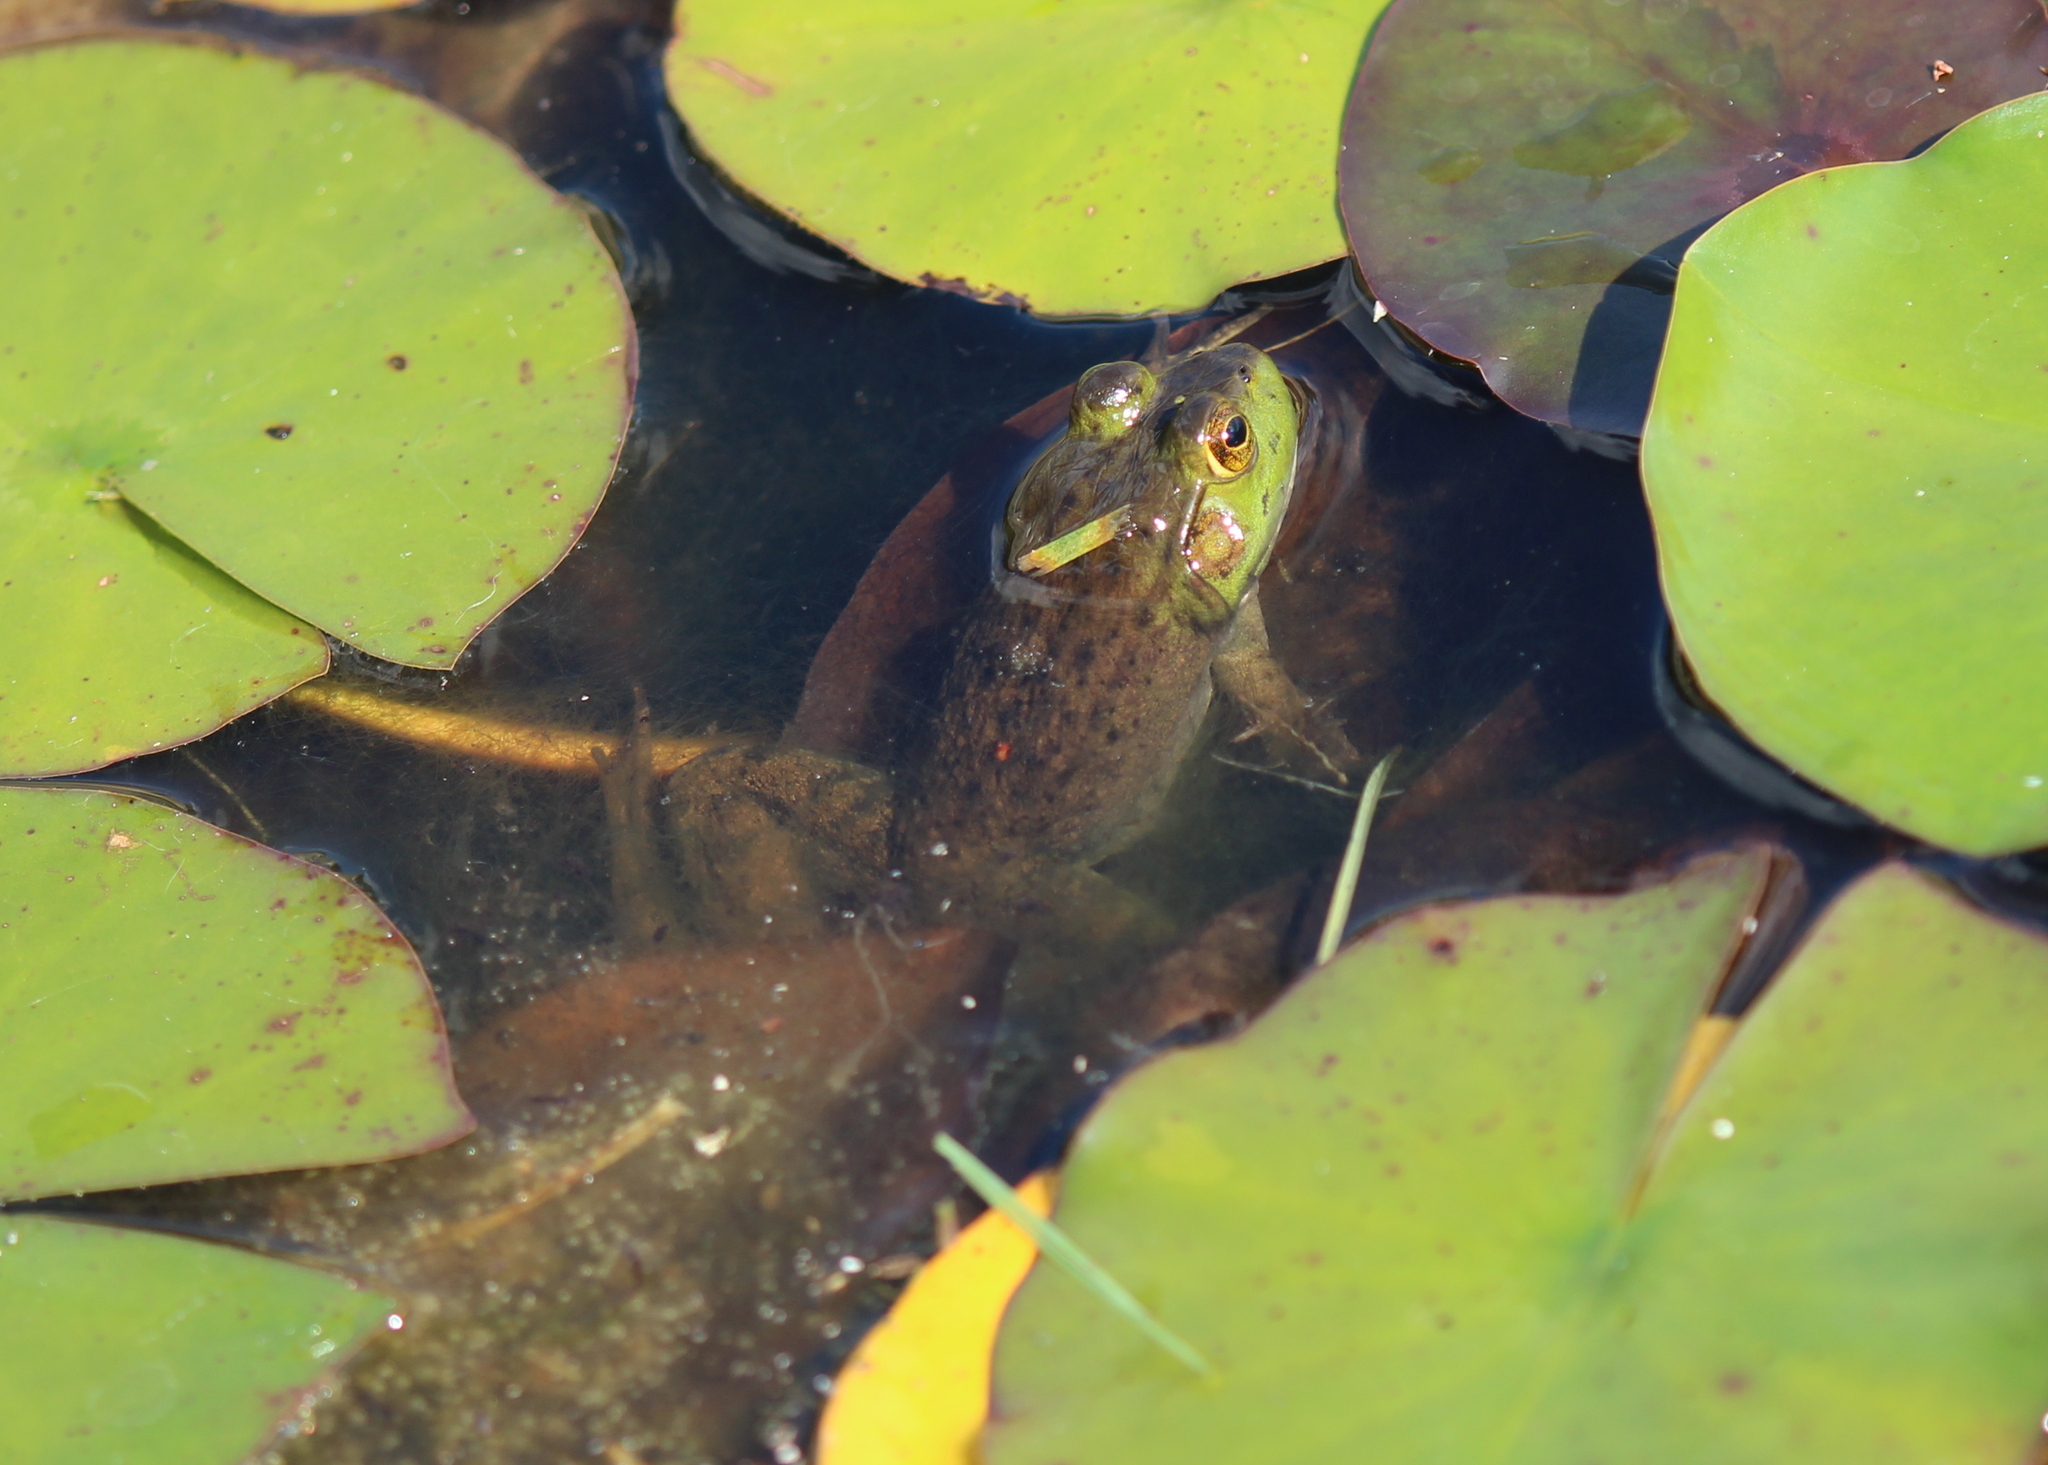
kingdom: Animalia
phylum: Chordata
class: Amphibia
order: Anura
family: Ranidae
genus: Lithobates
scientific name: Lithobates catesbeianus
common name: American bullfrog
